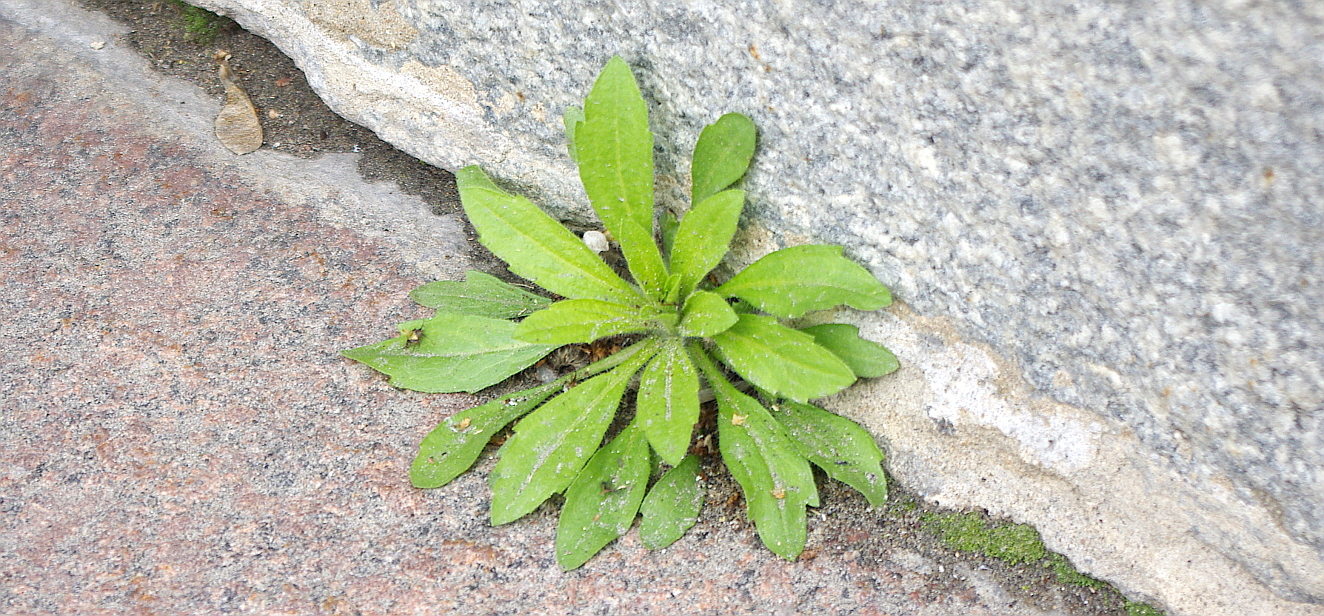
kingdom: Plantae
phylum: Tracheophyta
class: Magnoliopsida
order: Asterales
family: Asteraceae
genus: Erigeron
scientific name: Erigeron canadensis
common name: Canadian fleabane
